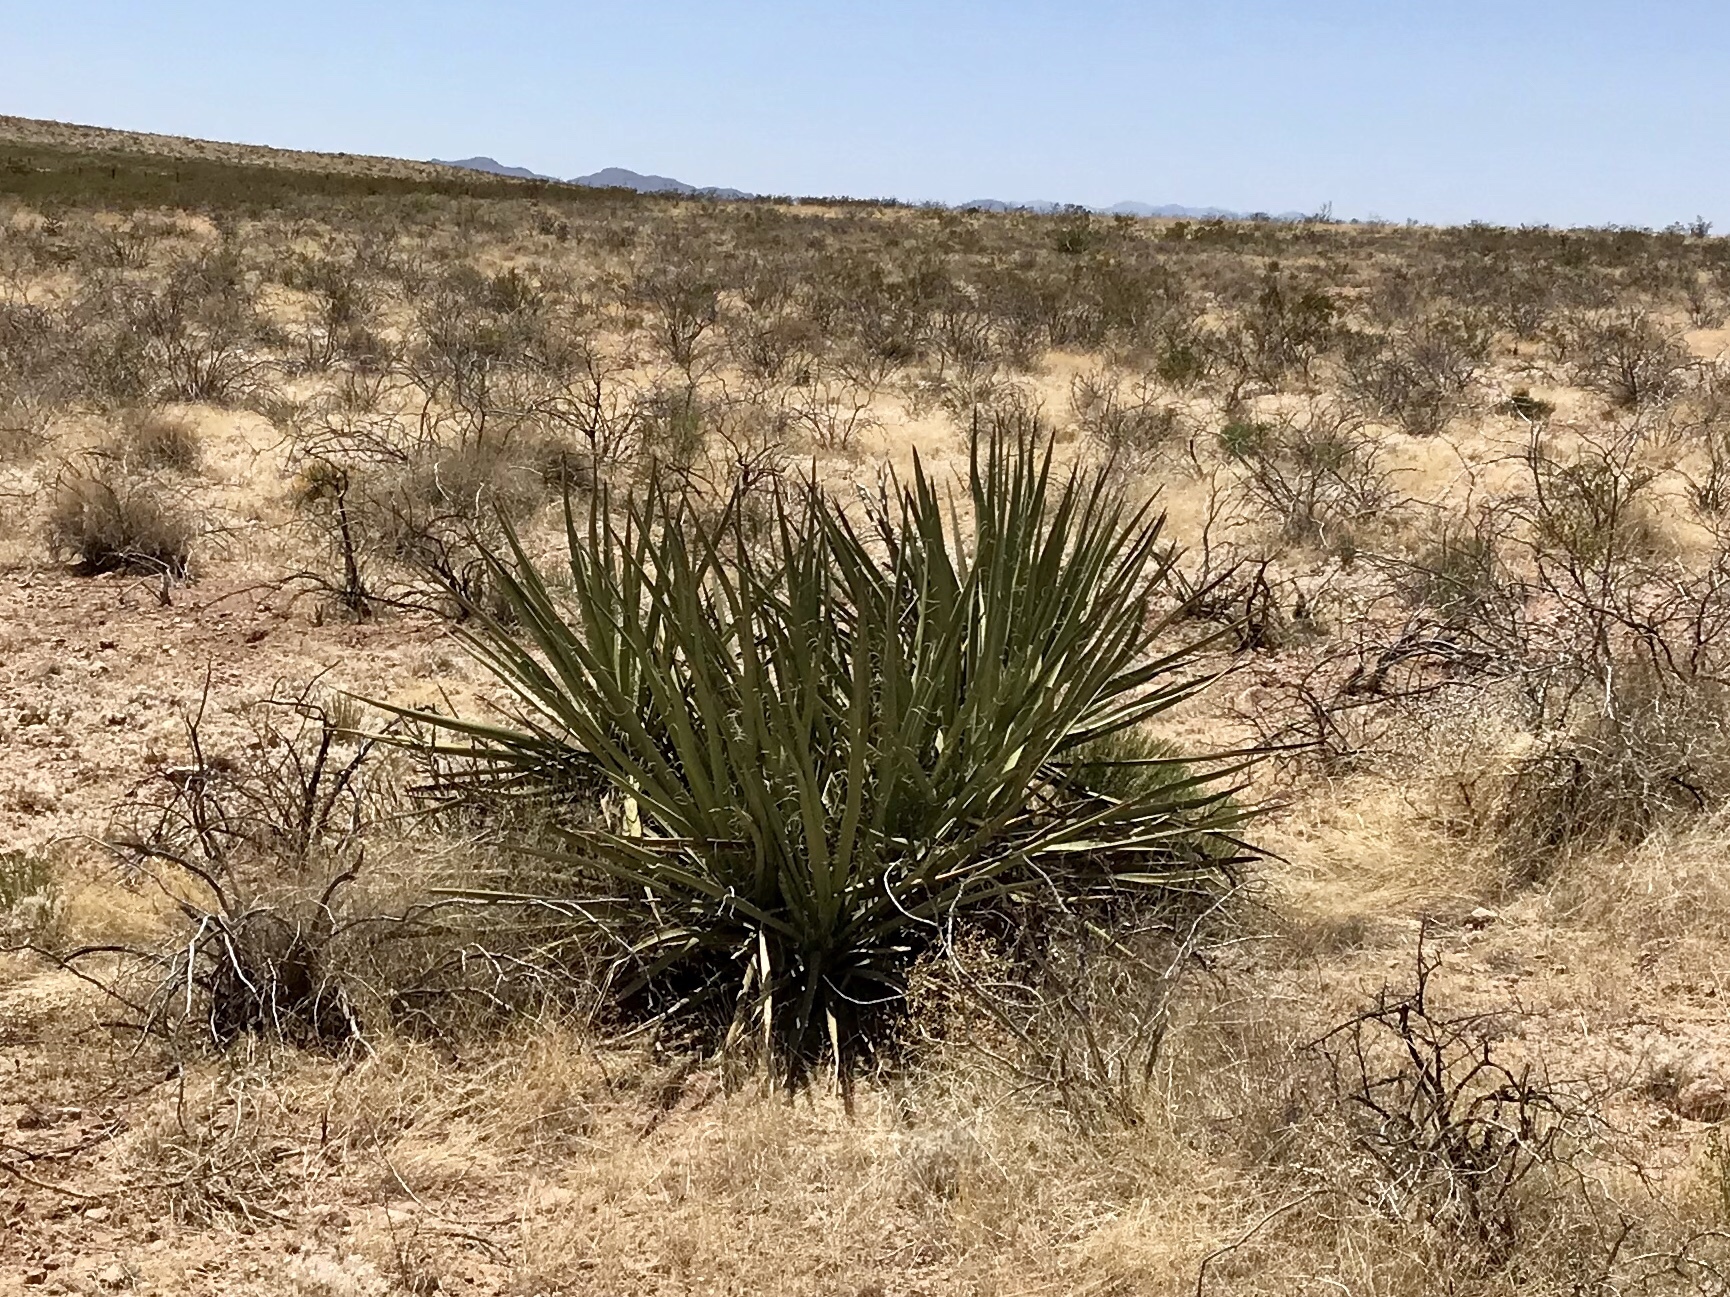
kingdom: Plantae
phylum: Tracheophyta
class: Liliopsida
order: Asparagales
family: Asparagaceae
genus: Yucca
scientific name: Yucca baccata
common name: Banana yucca
